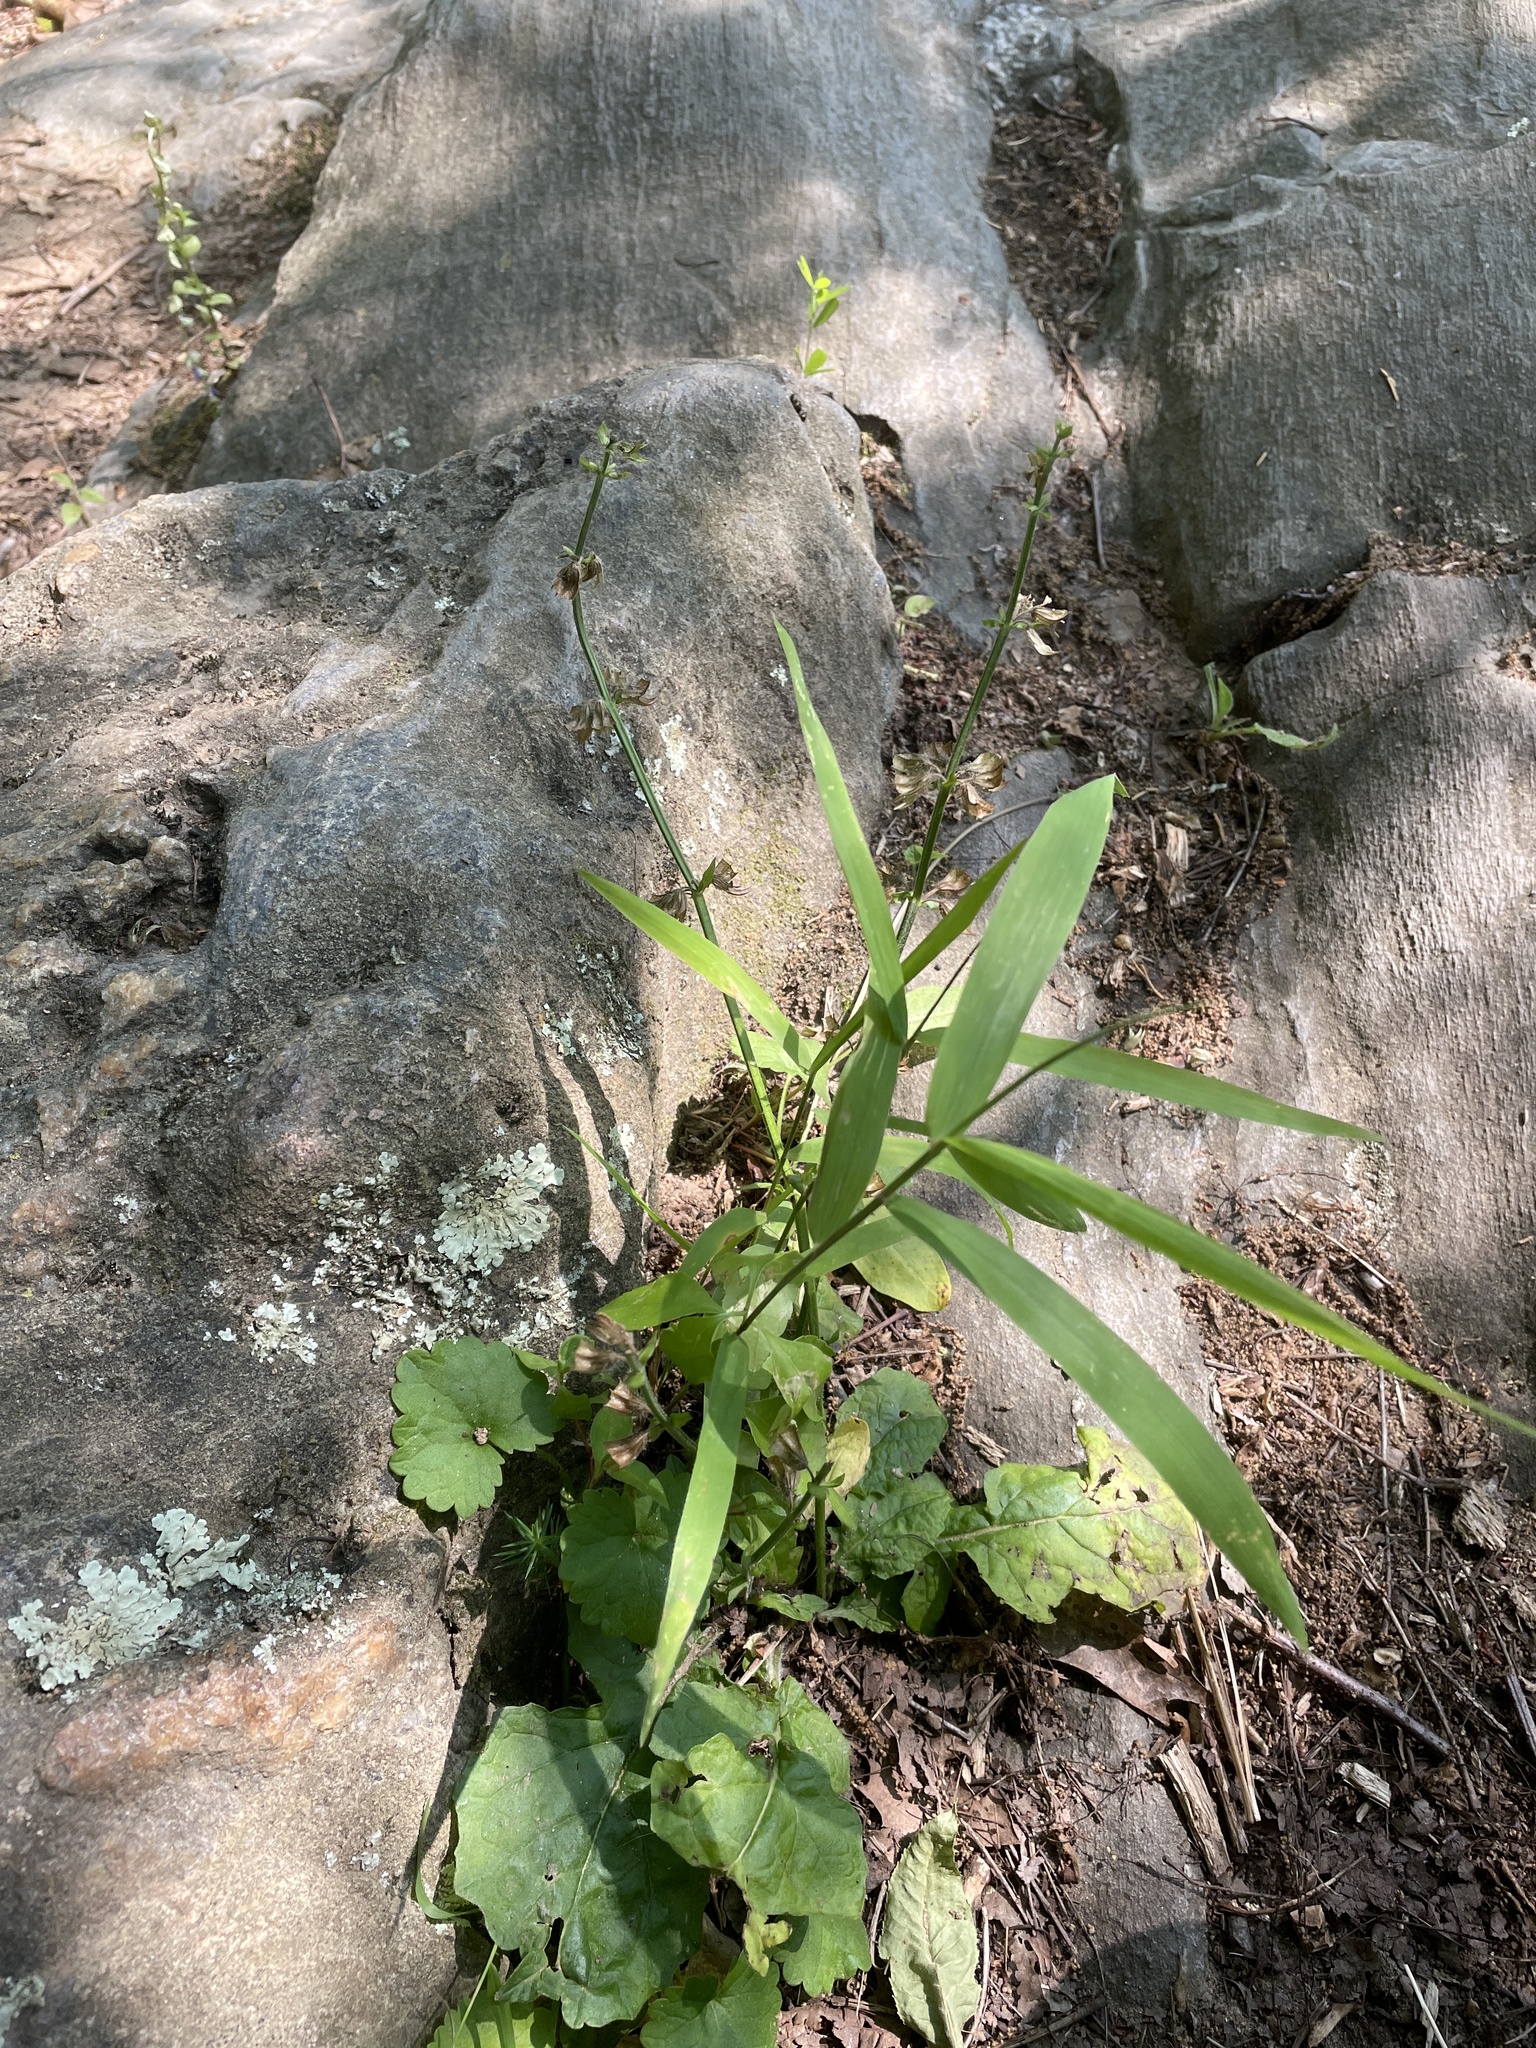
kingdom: Plantae
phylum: Tracheophyta
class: Magnoliopsida
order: Lamiales
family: Lamiaceae
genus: Salvia
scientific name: Salvia lyrata
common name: Cancerweed
